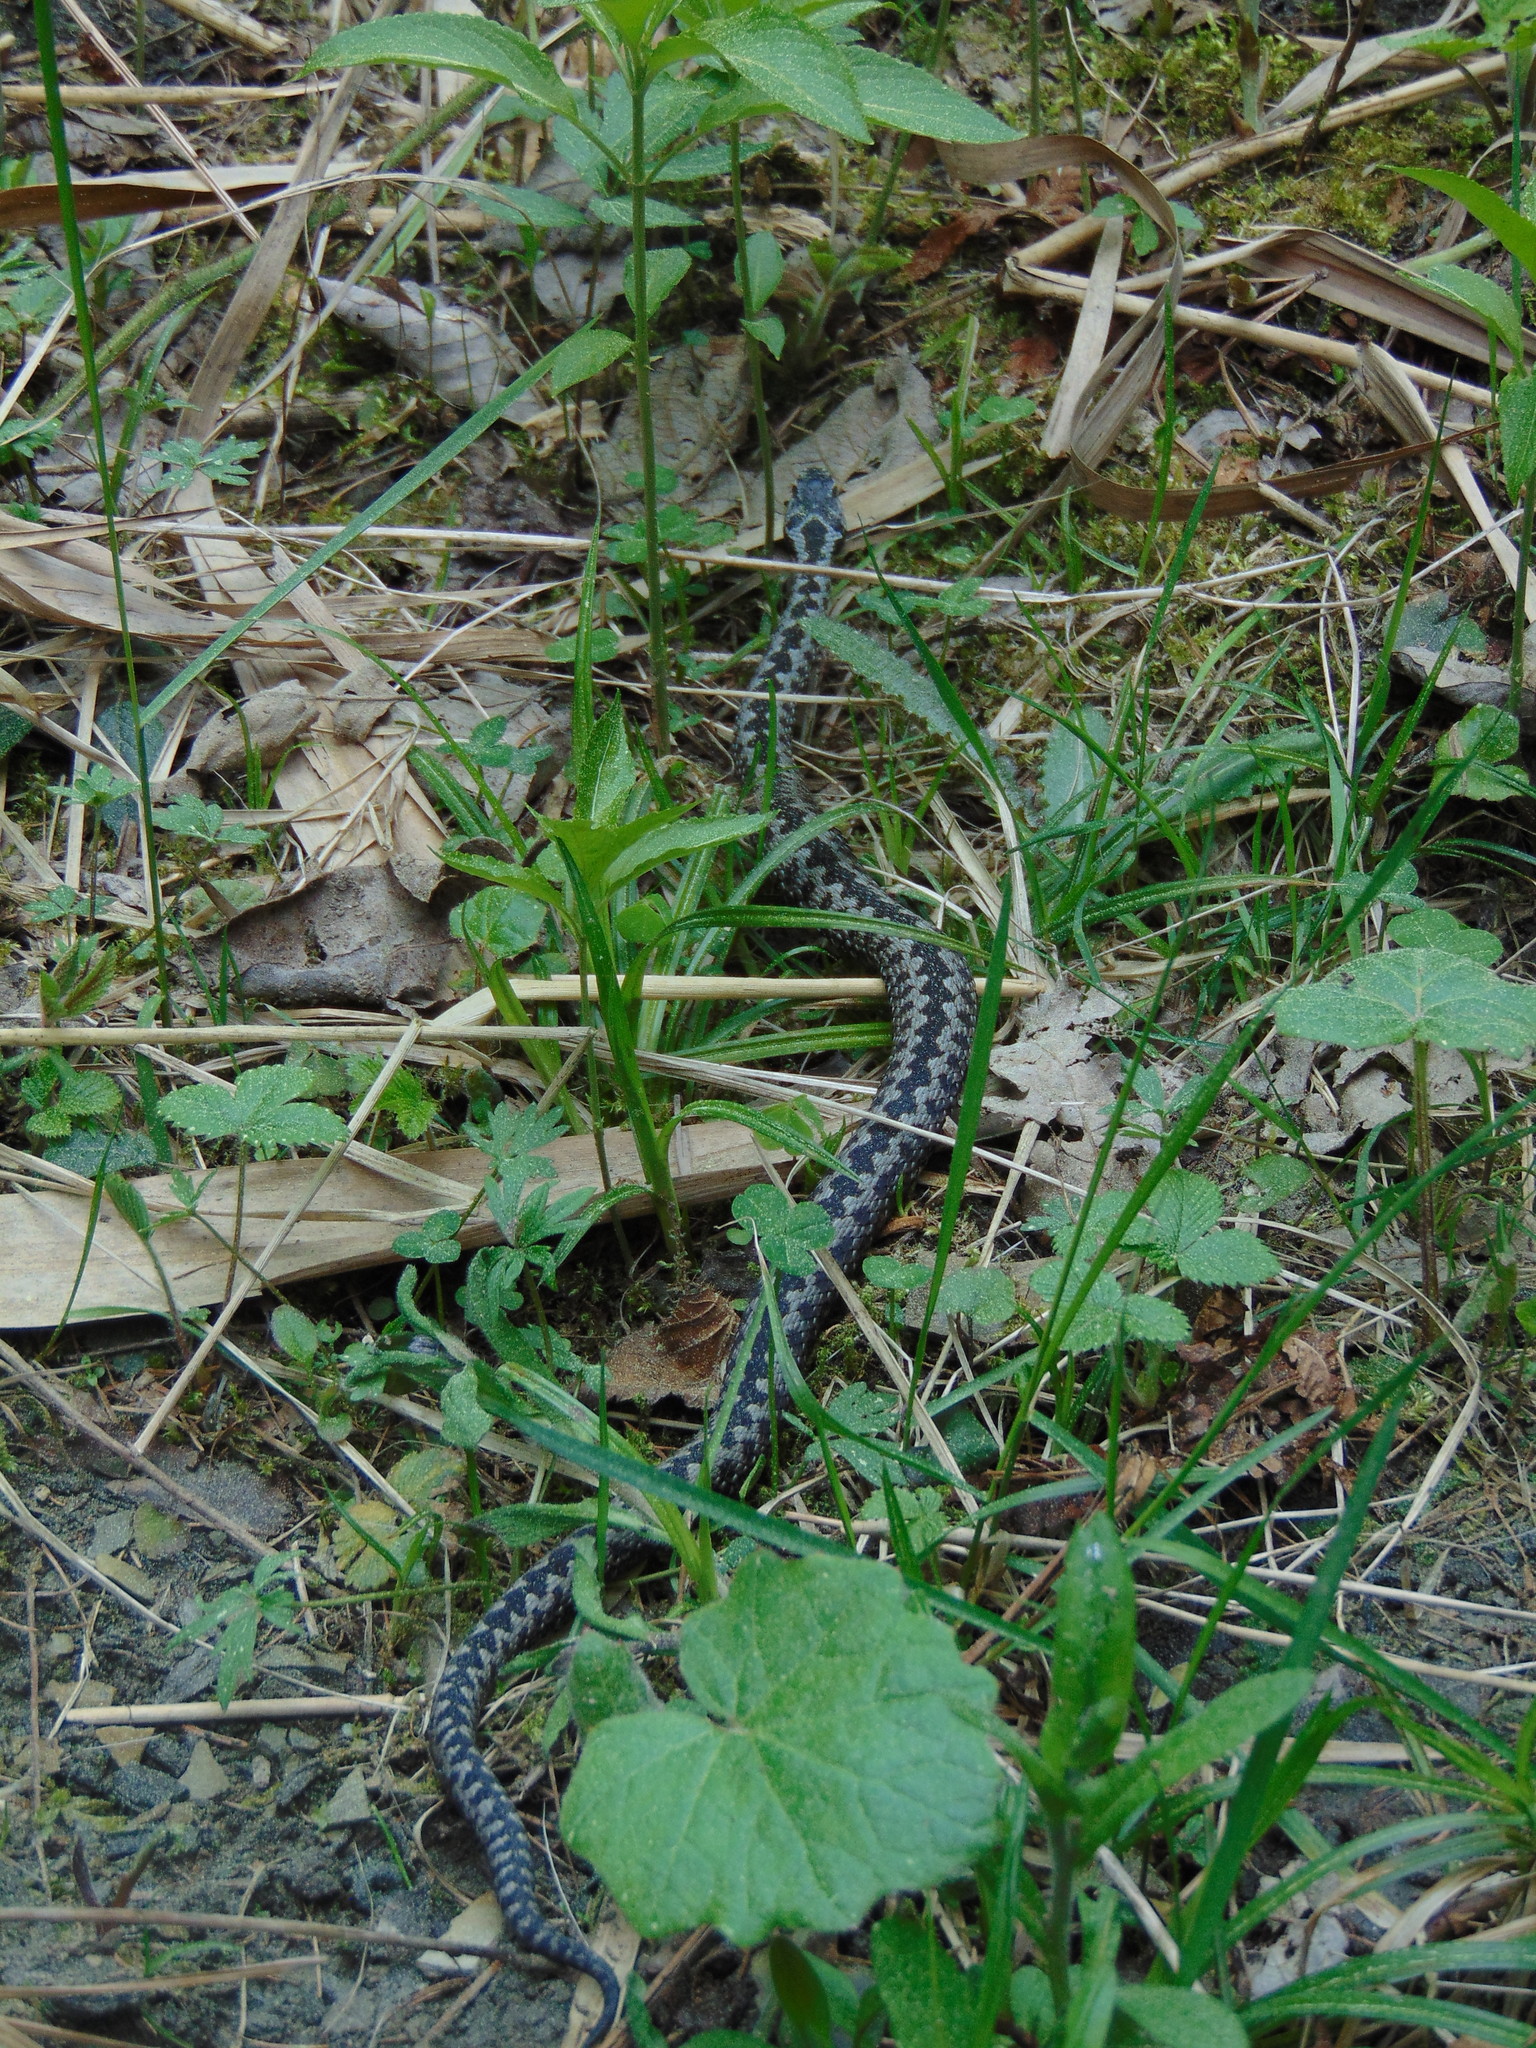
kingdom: Animalia
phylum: Chordata
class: Squamata
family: Viperidae
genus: Vipera
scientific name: Vipera berus
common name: Adder
